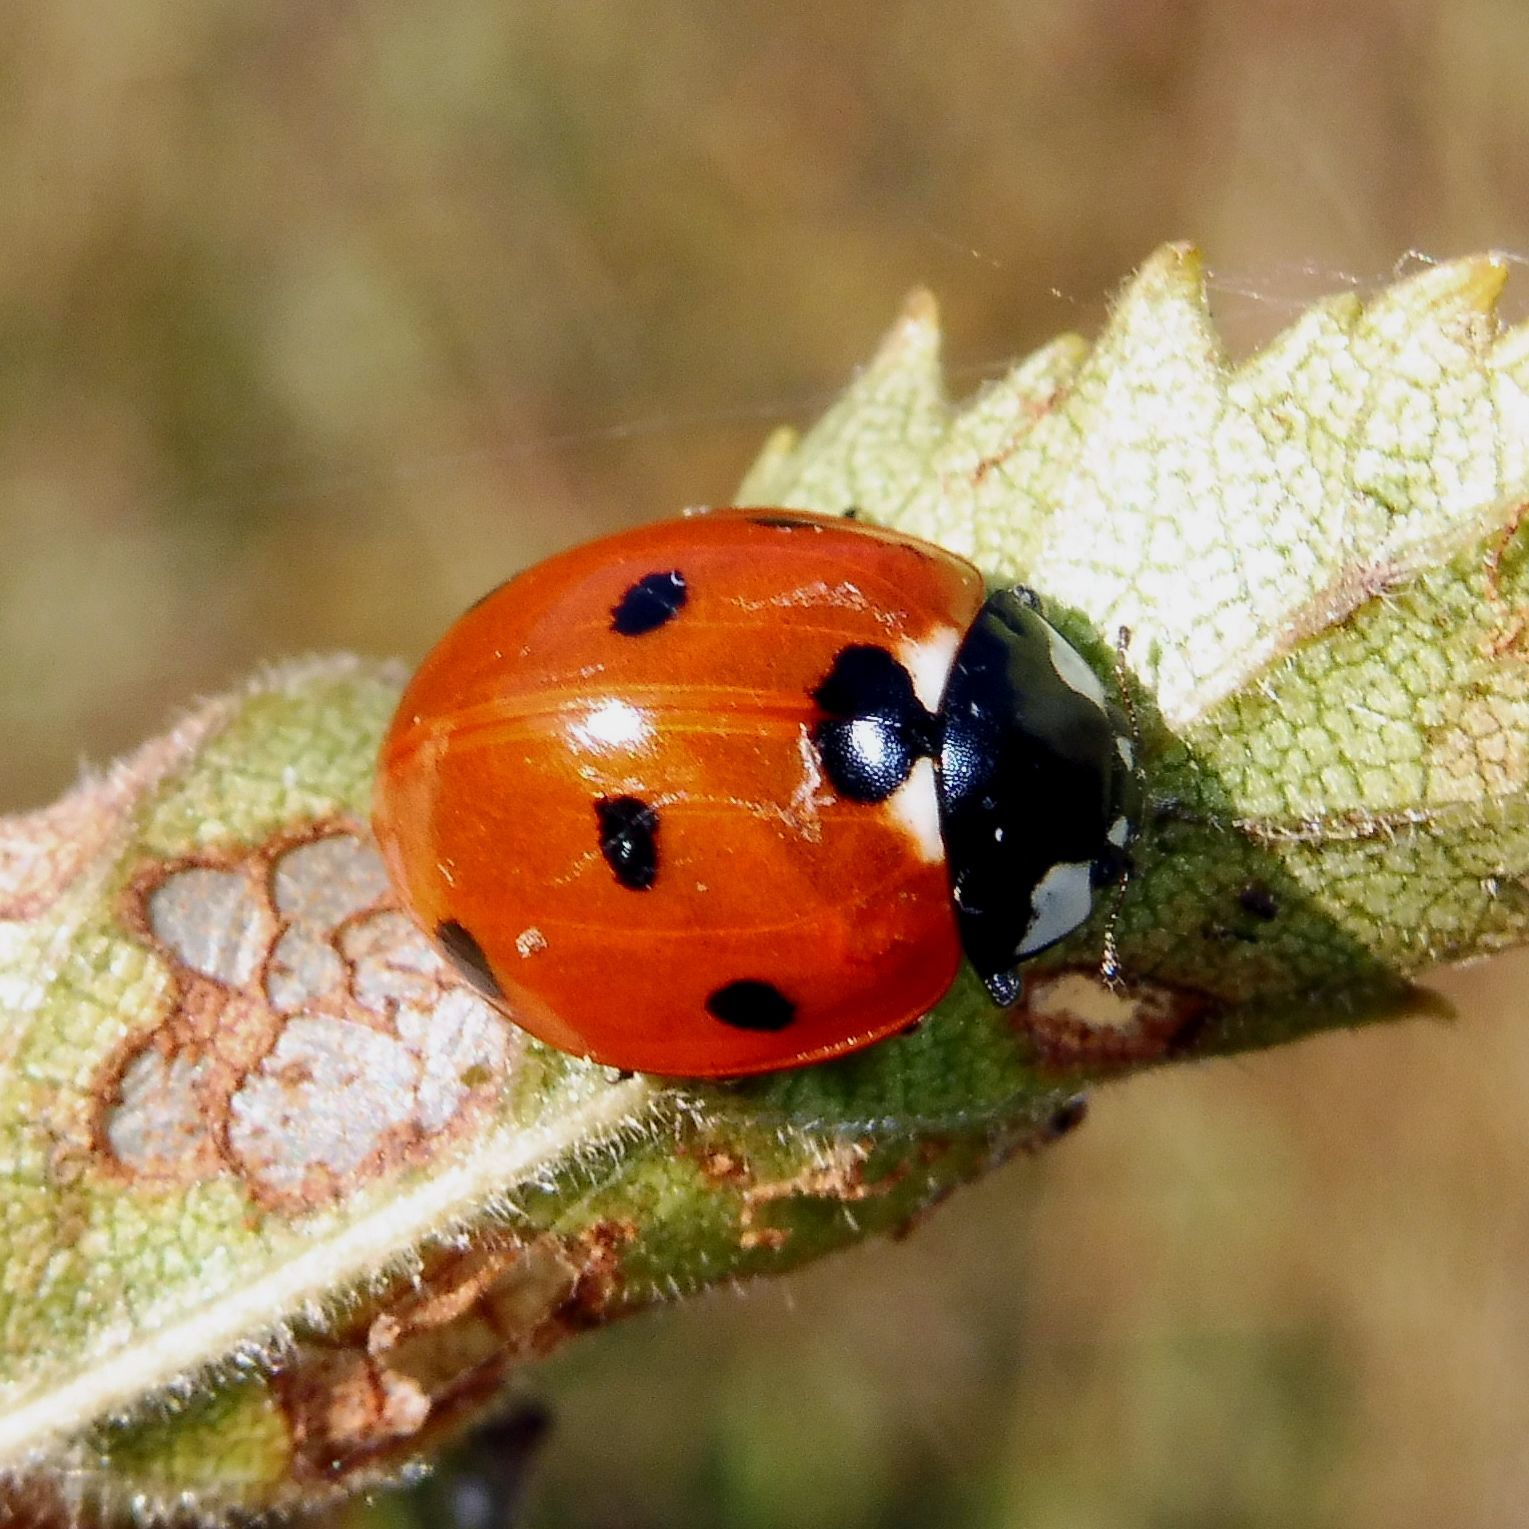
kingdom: Animalia
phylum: Arthropoda
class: Insecta
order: Coleoptera
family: Coccinellidae
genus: Coccinella
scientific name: Coccinella septempunctata
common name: Sevenspotted lady beetle
